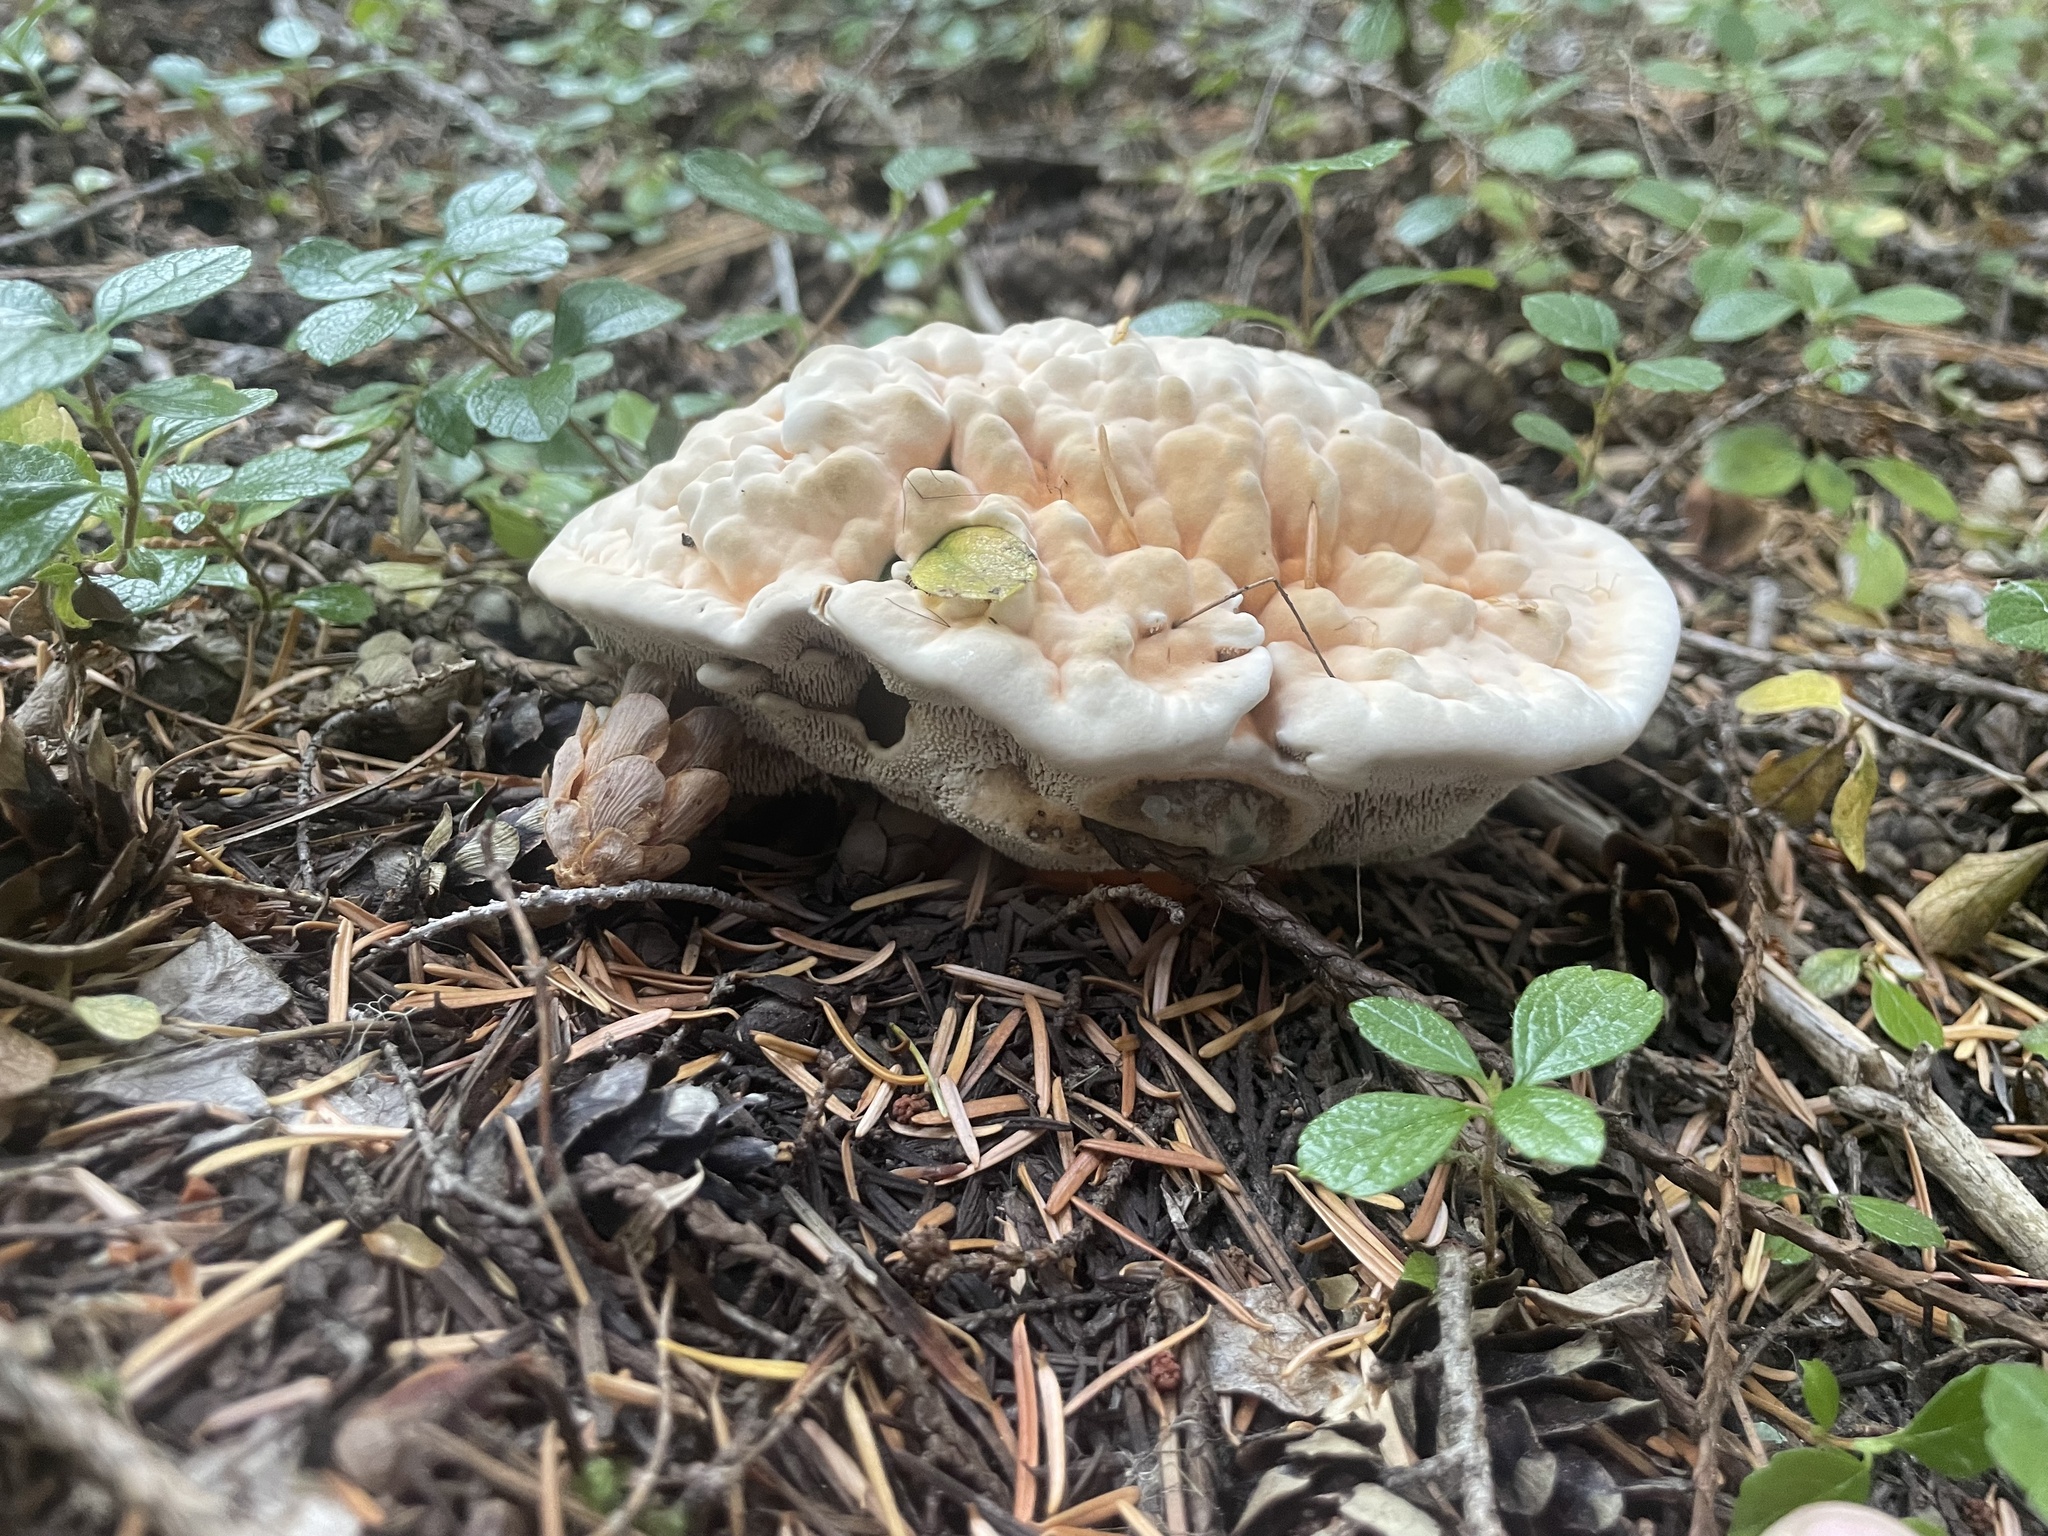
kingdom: Fungi
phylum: Basidiomycota
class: Agaricomycetes
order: Thelephorales
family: Bankeraceae
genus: Hydnellum
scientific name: Hydnellum aurantiacum
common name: Orange tooth
